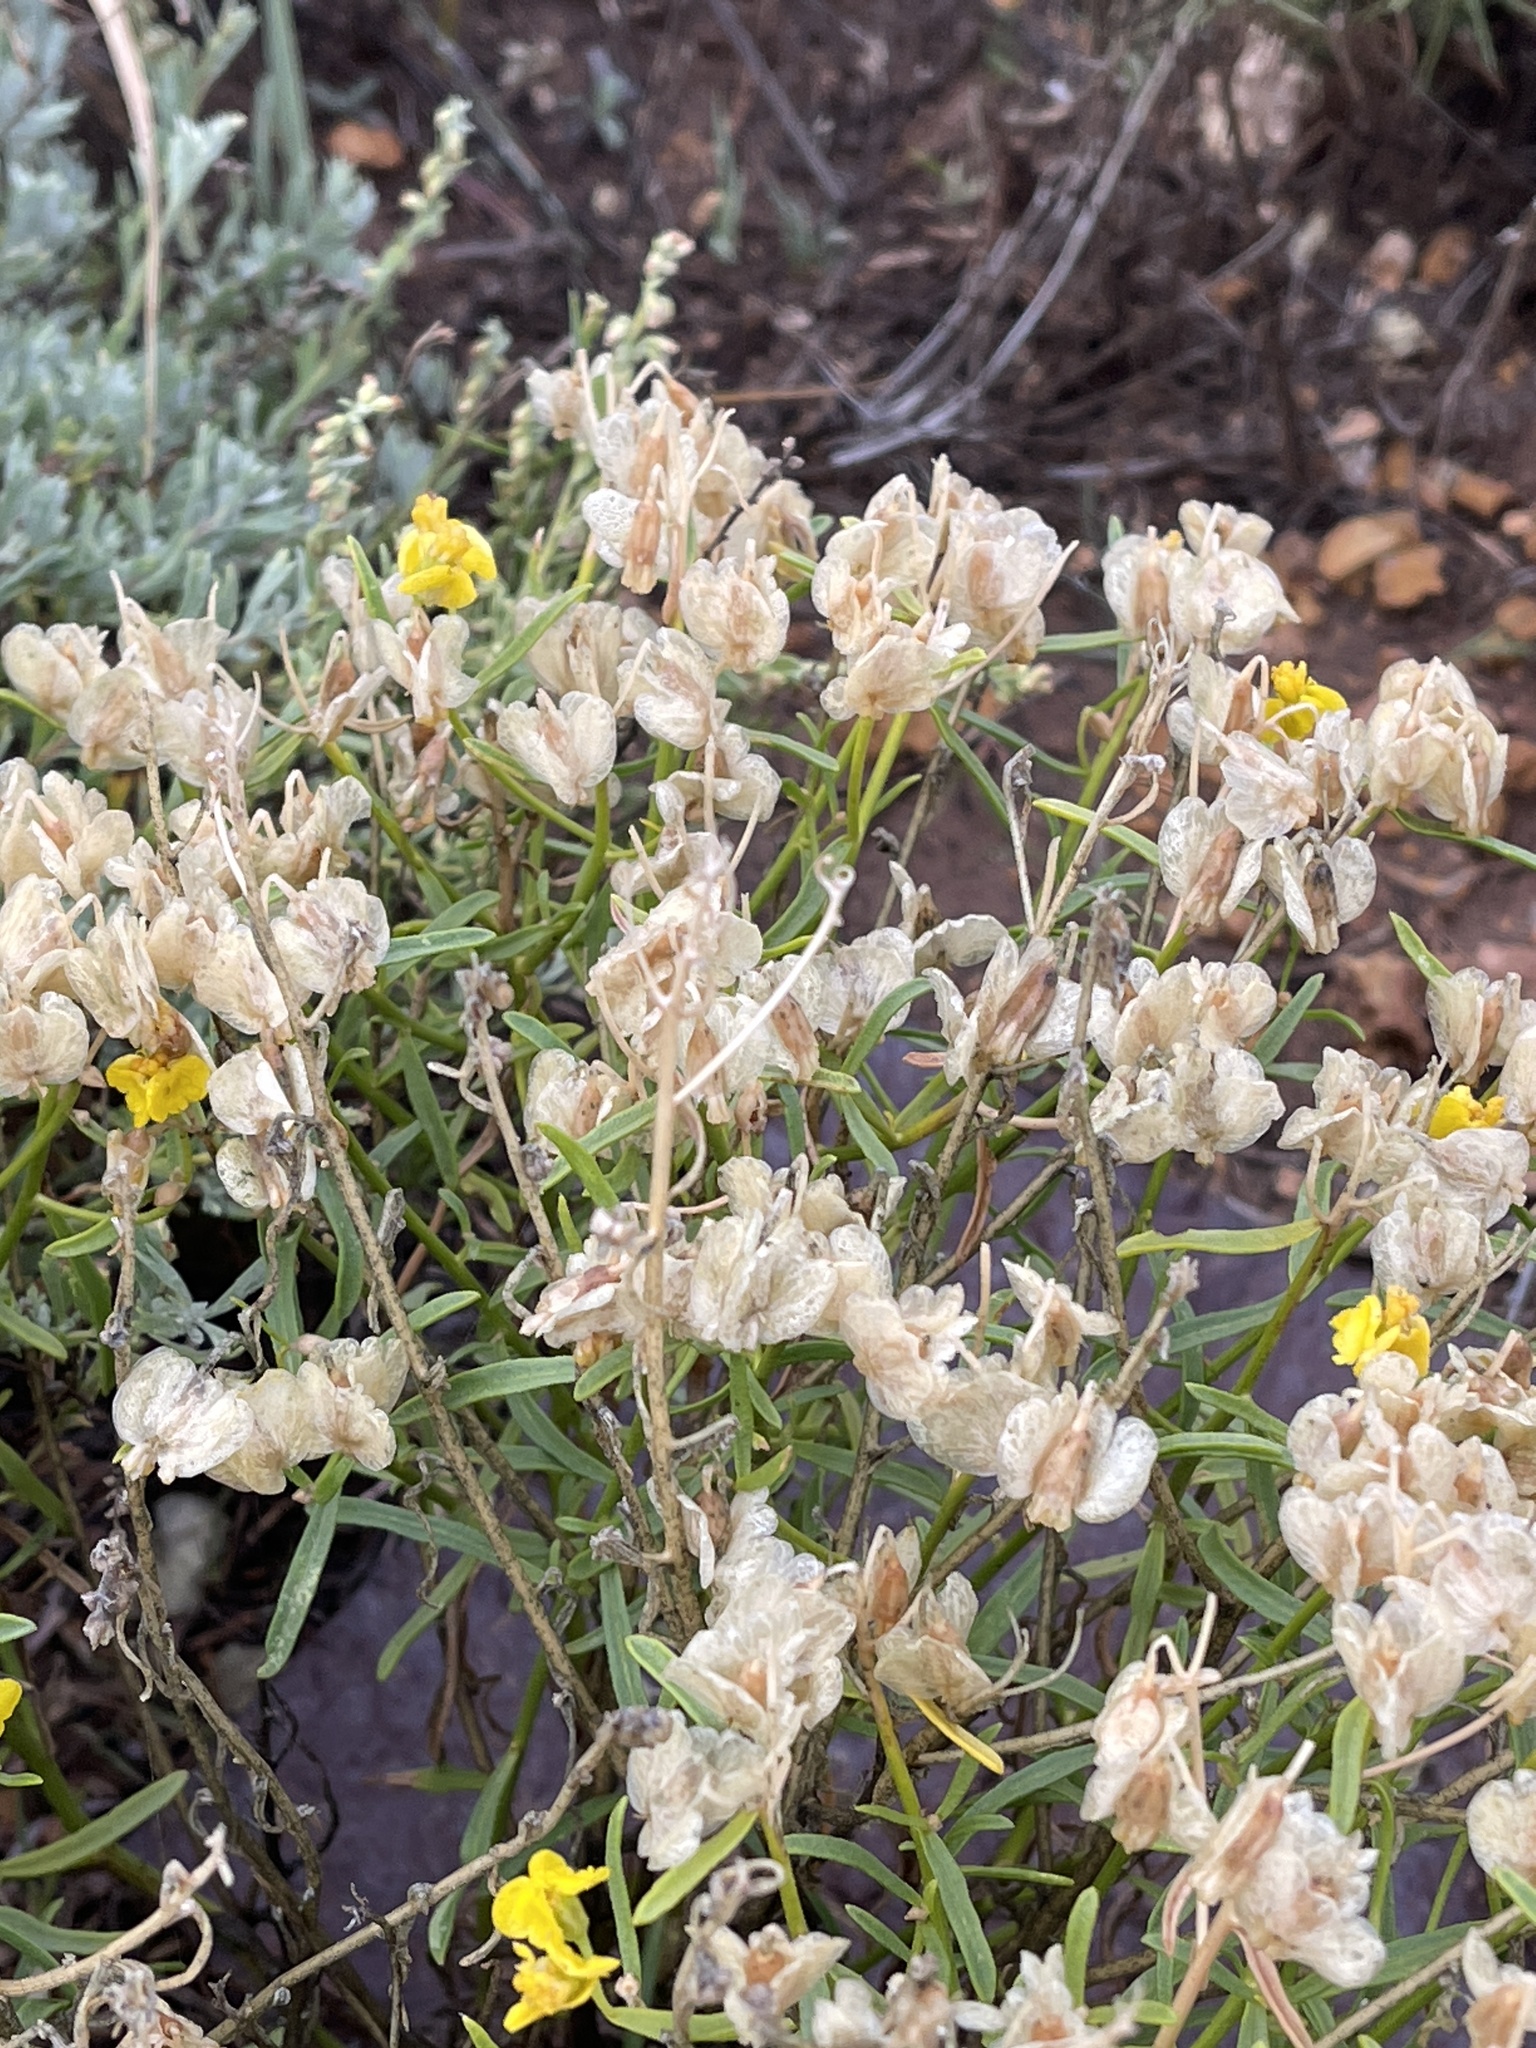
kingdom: Plantae
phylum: Tracheophyta
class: Magnoliopsida
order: Asterales
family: Asteraceae
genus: Psilostrophe
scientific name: Psilostrophe cooperi
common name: White-stem paper-flower
